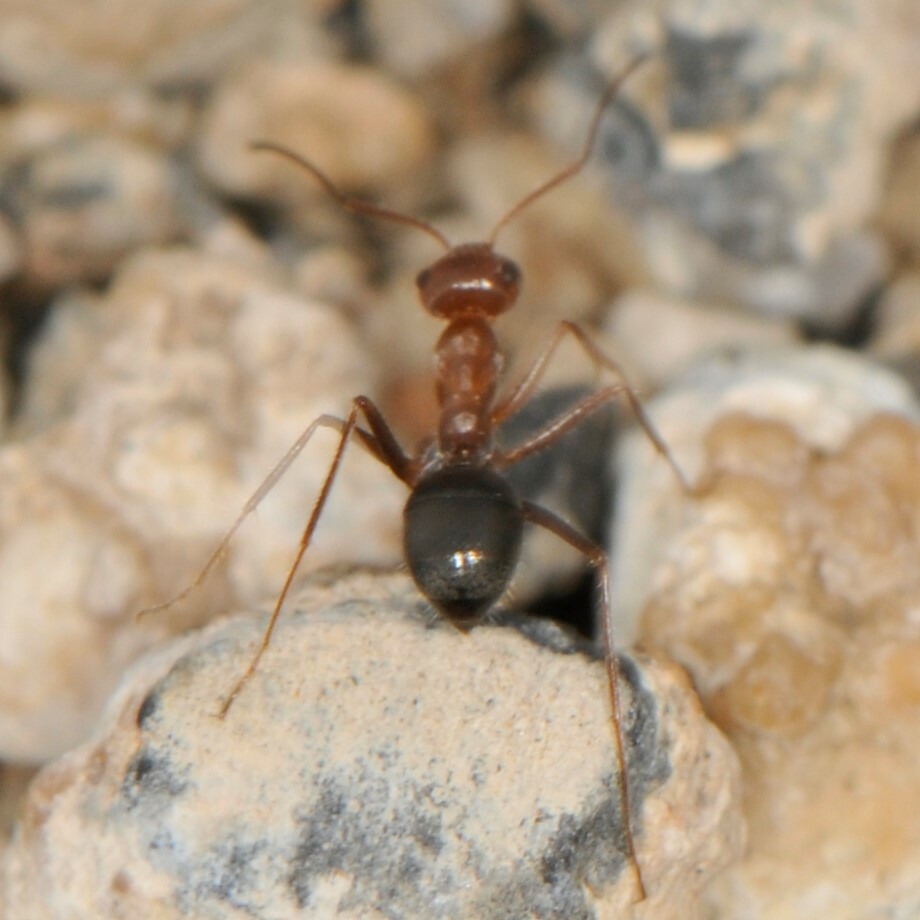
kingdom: Animalia
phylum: Arthropoda
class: Insecta
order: Hymenoptera
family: Formicidae
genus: Endiodioctes
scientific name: Endiodioctes
